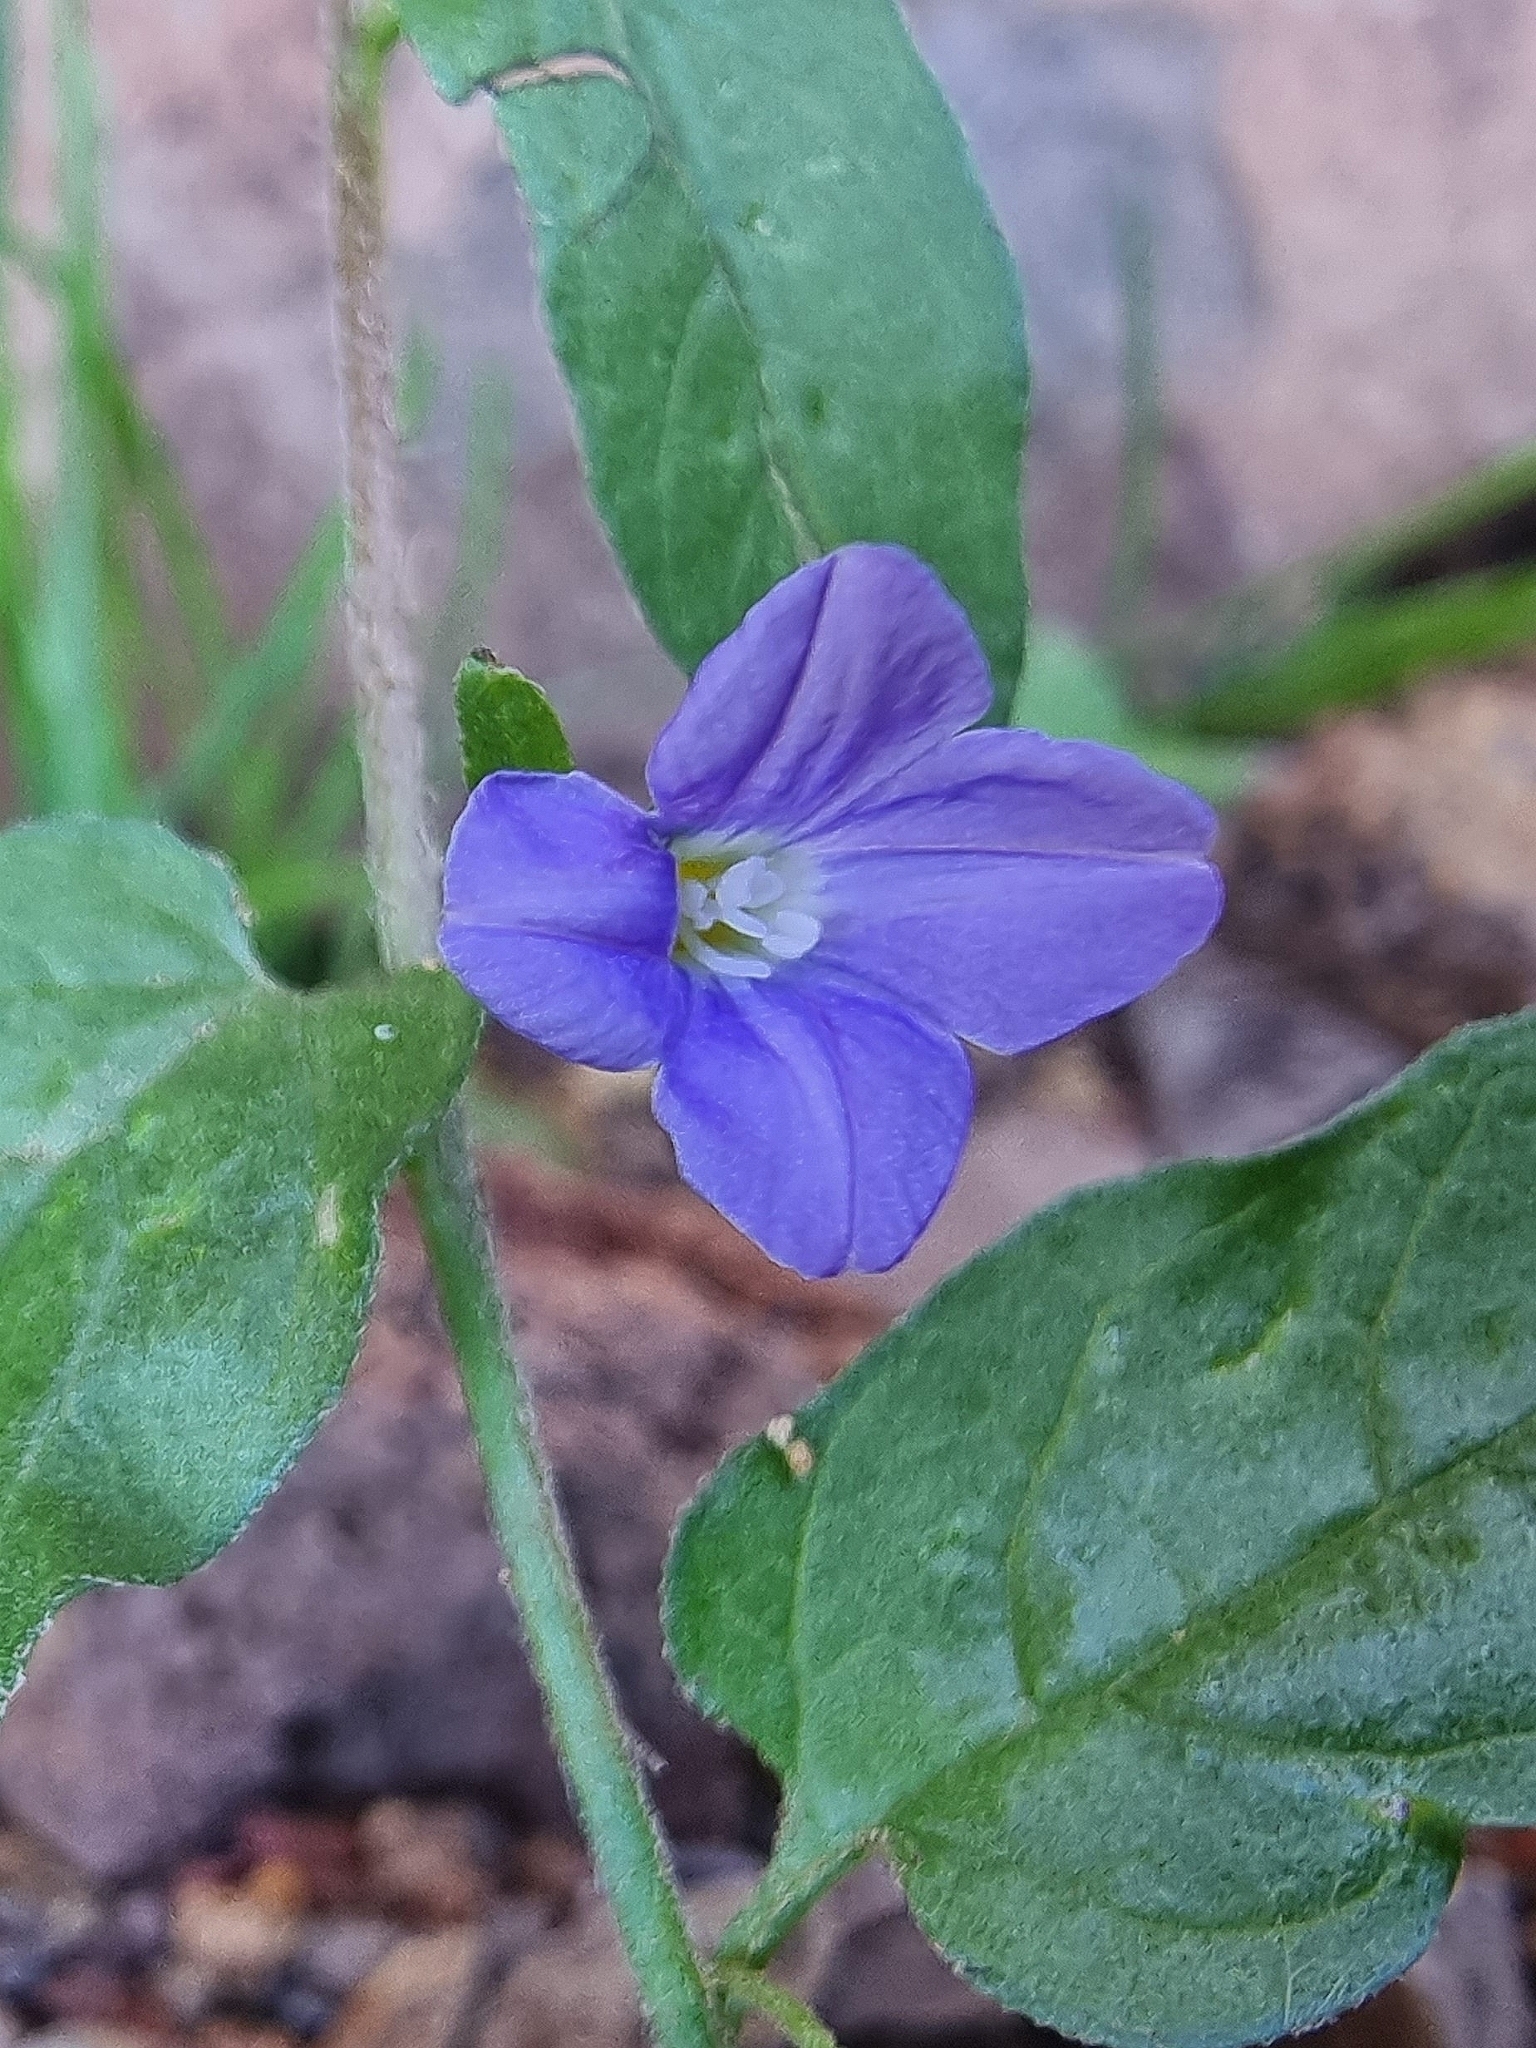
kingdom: Plantae
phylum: Tracheophyta
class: Magnoliopsida
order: Solanales
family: Convolvulaceae
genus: Convolvulus
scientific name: Convolvulus siculus
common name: Small blue-convolvulus
